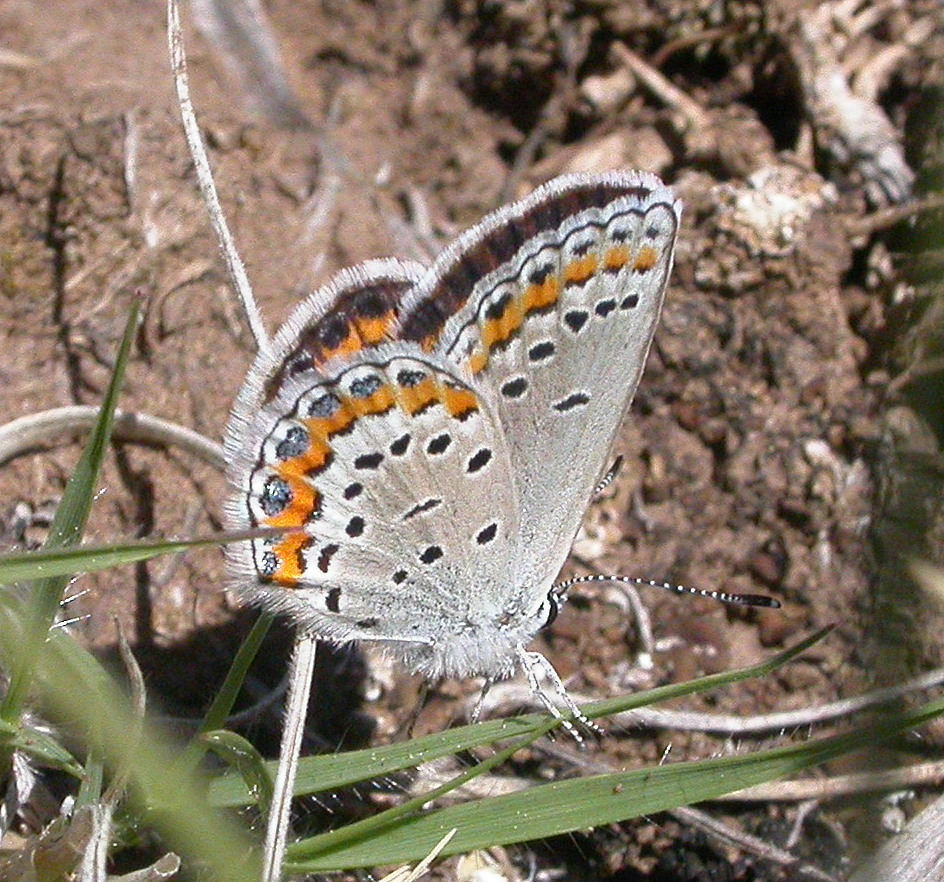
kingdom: Animalia
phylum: Arthropoda
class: Insecta
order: Lepidoptera
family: Lycaenidae
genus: Lycaeides
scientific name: Lycaeides melissa
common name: Melissa blue
